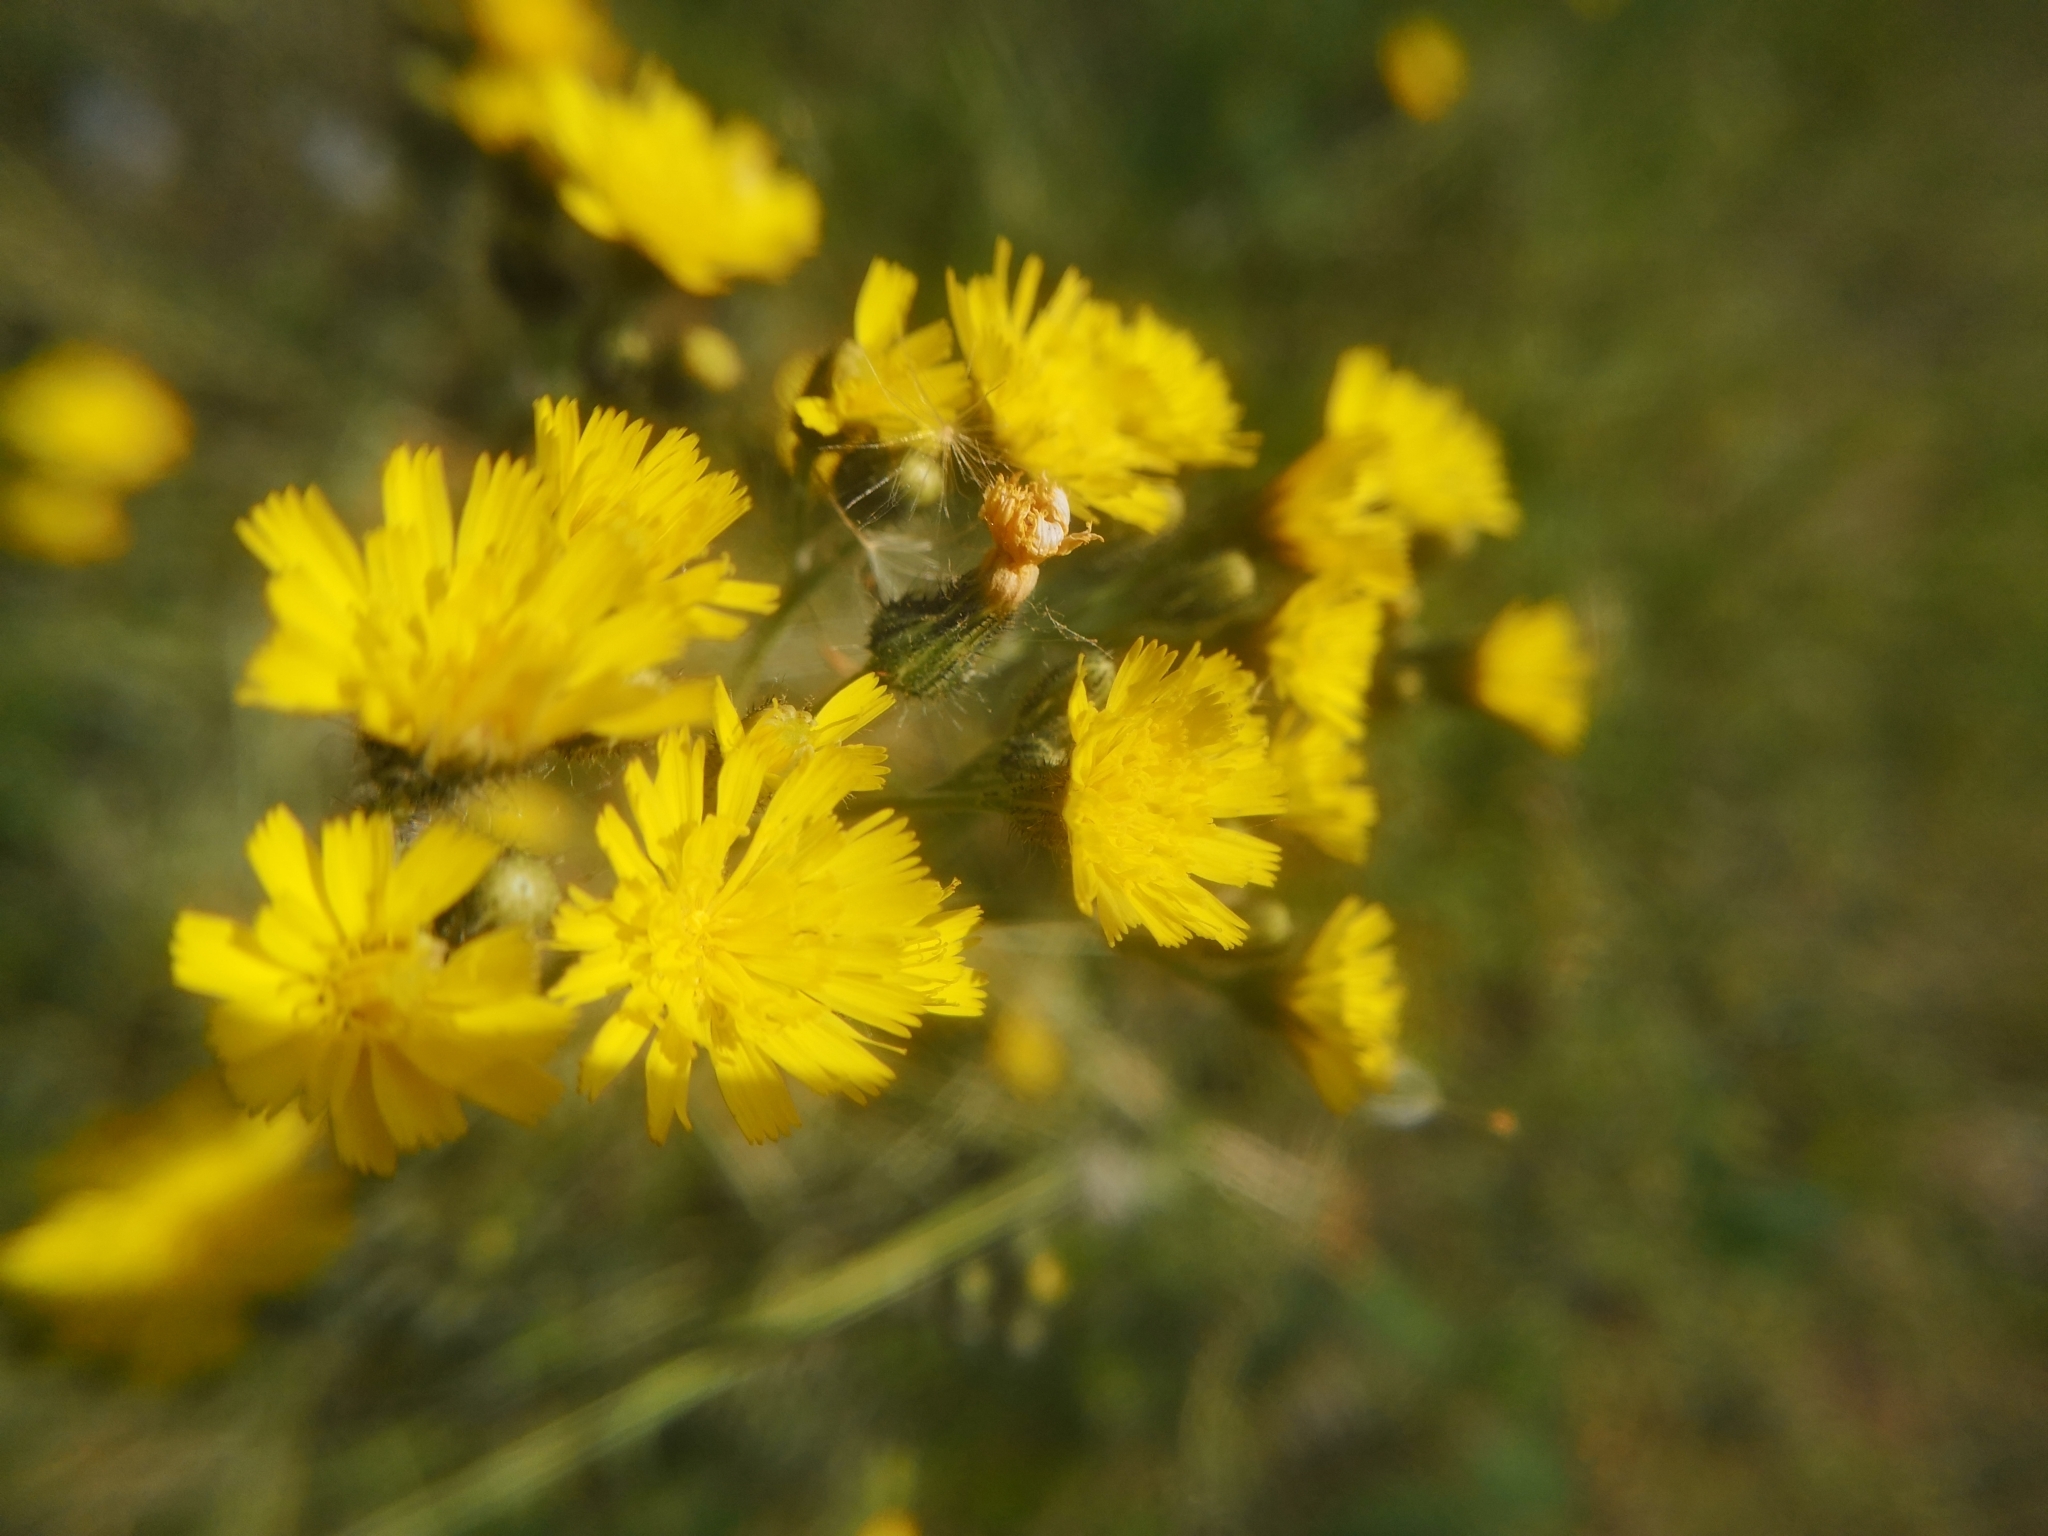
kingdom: Plantae
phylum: Tracheophyta
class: Magnoliopsida
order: Asterales
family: Asteraceae
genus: Pilosella
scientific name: Pilosella caespitosa
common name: Yellow fox-and-cubs
